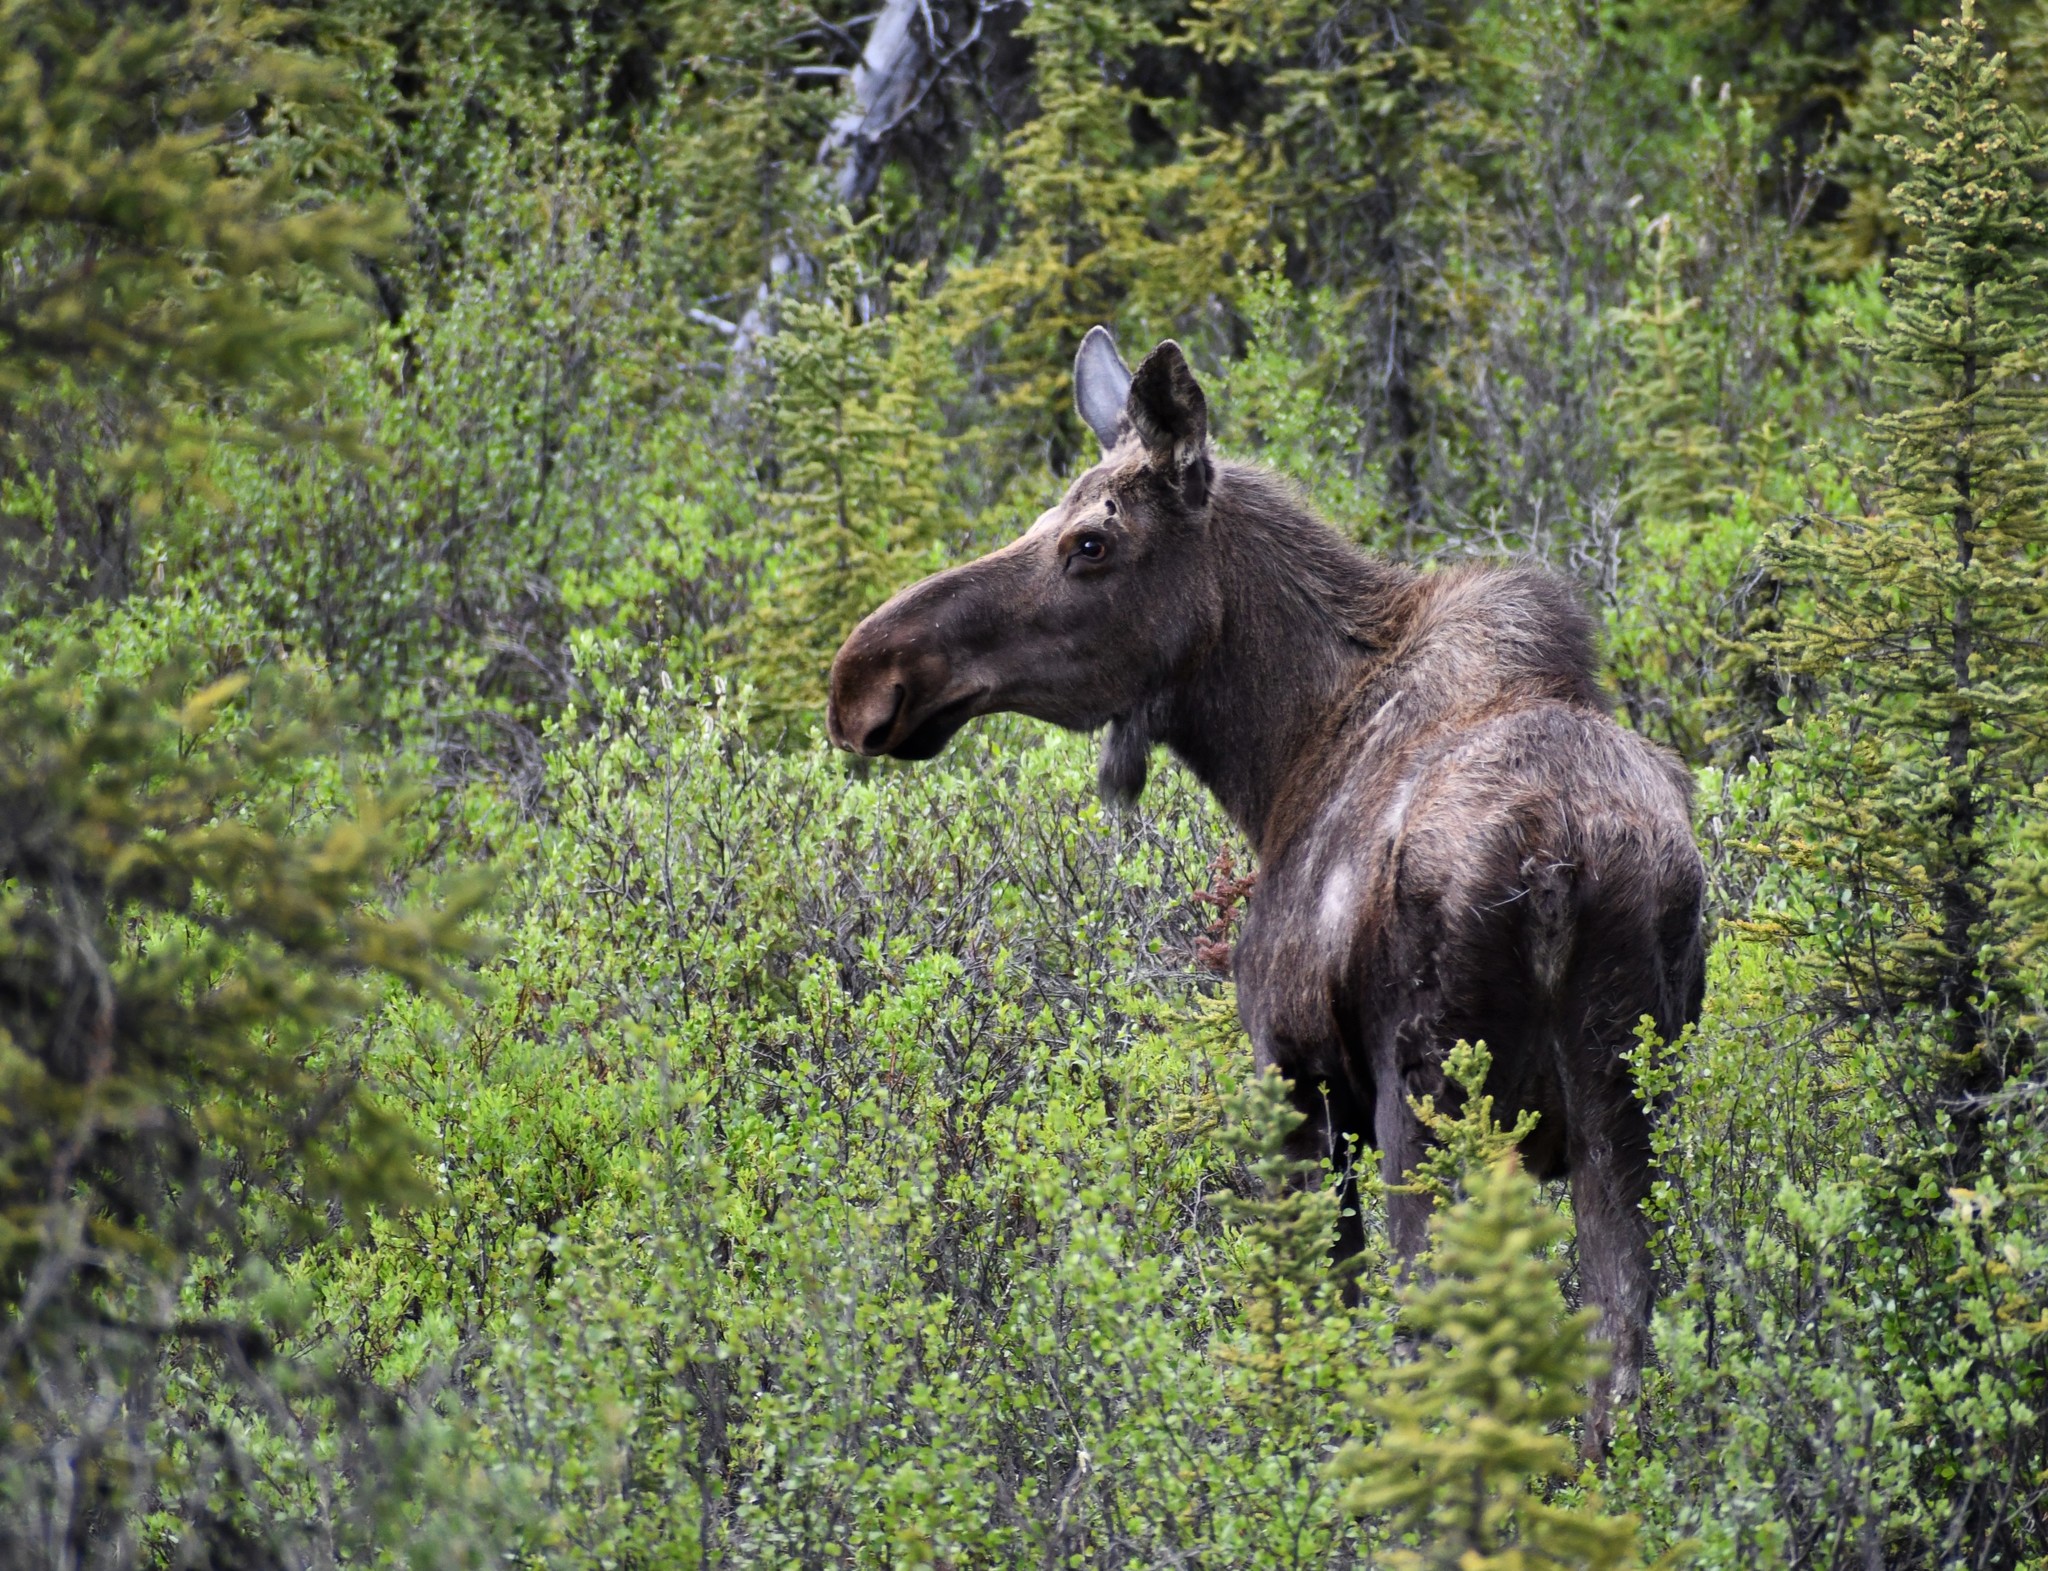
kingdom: Animalia
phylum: Chordata
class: Mammalia
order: Artiodactyla
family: Cervidae
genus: Alces
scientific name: Alces alces
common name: Moose
